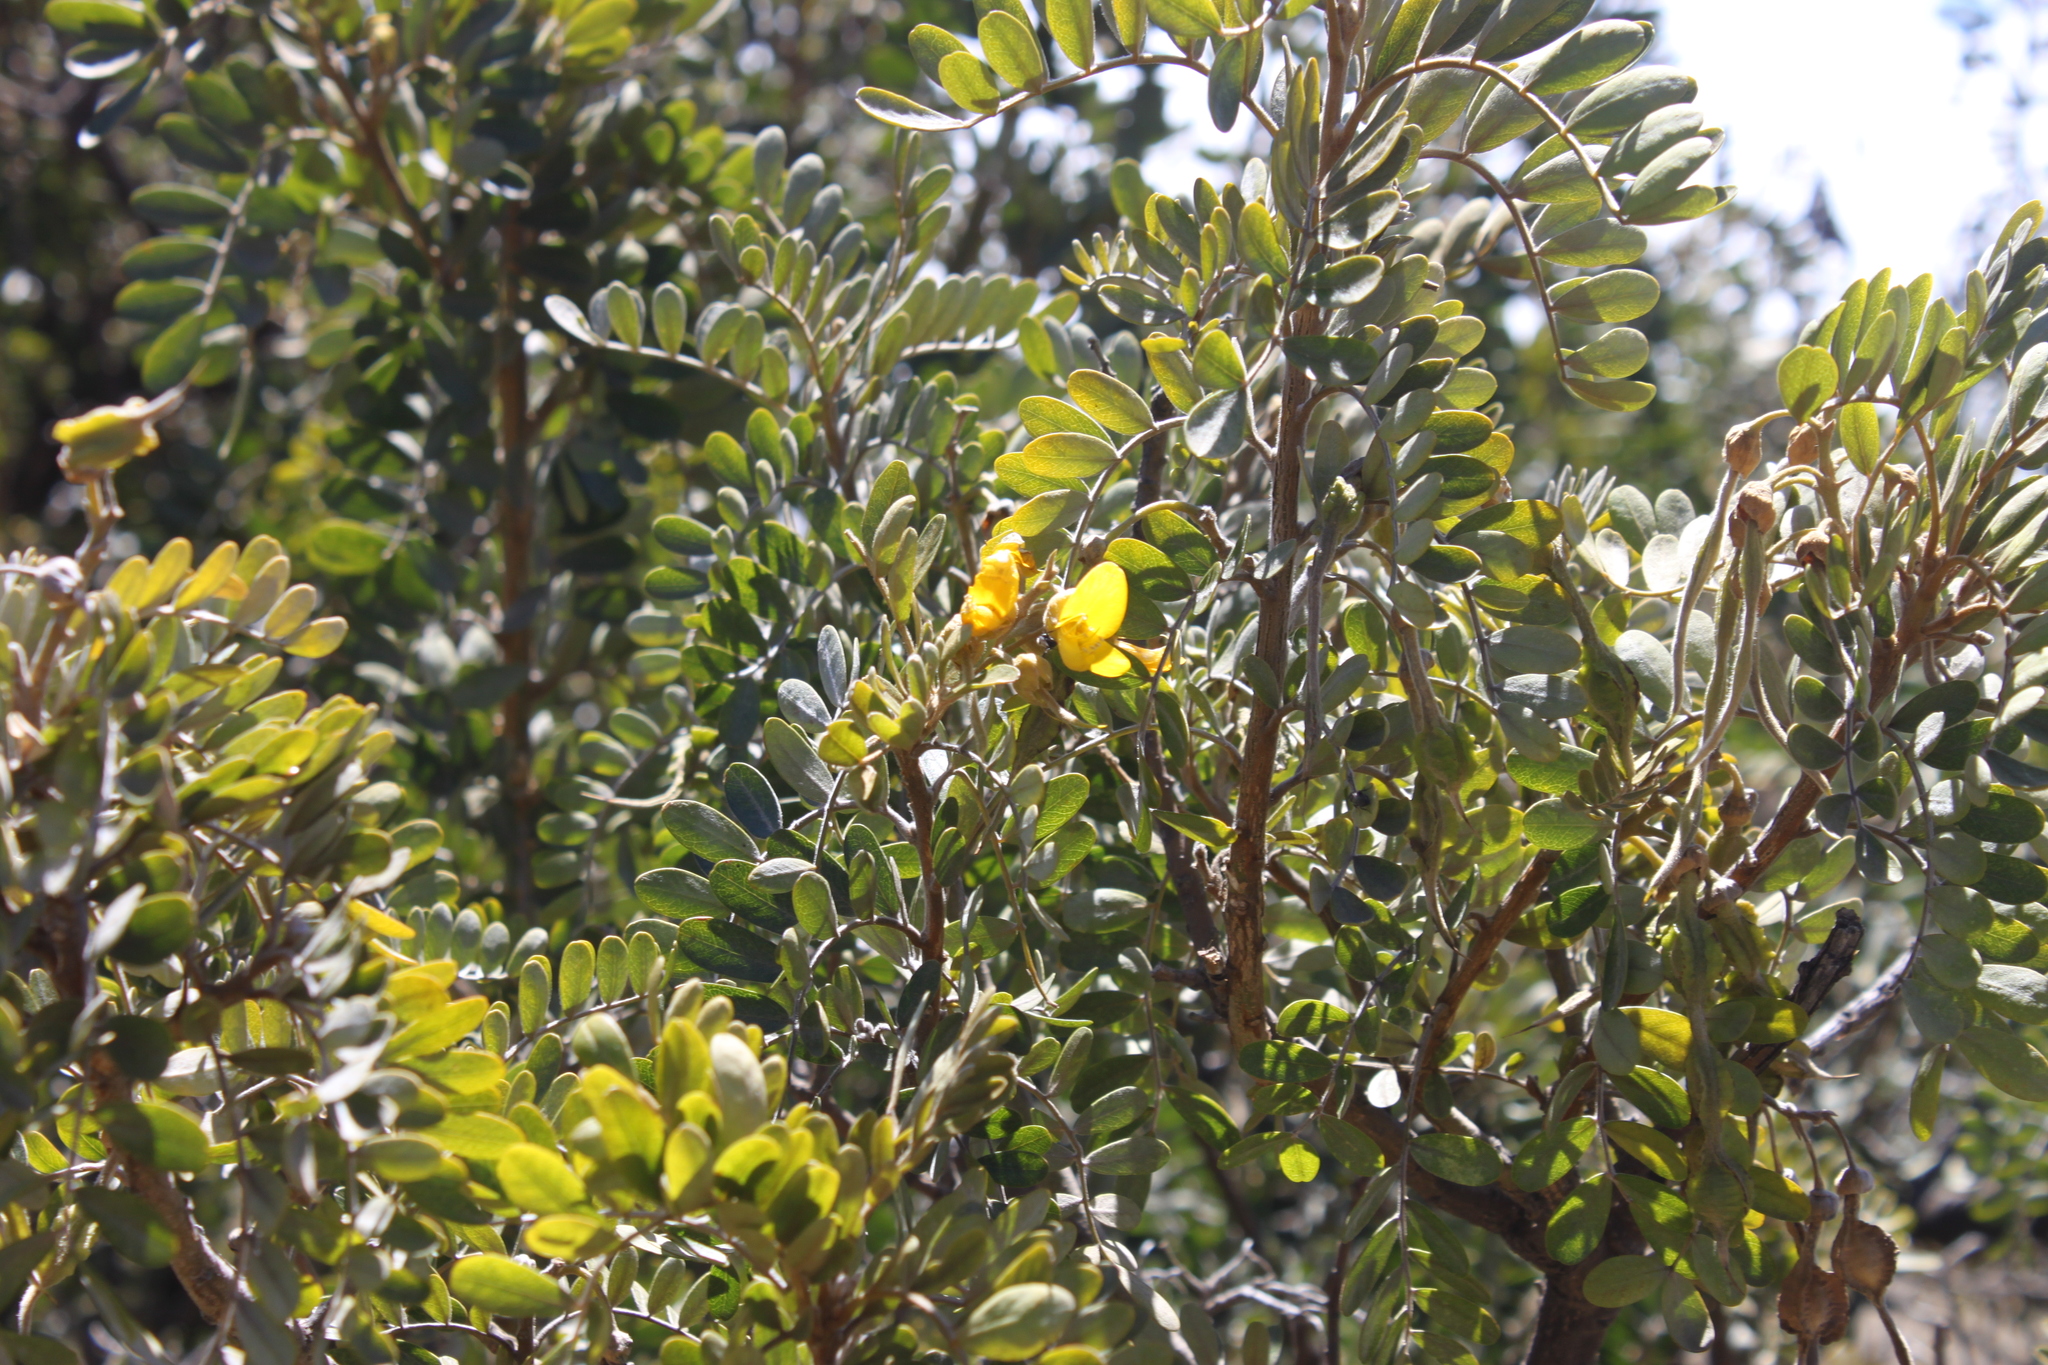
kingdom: Plantae
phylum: Tracheophyta
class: Magnoliopsida
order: Fabales
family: Fabaceae
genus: Sophora
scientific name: Sophora chrysophylla
